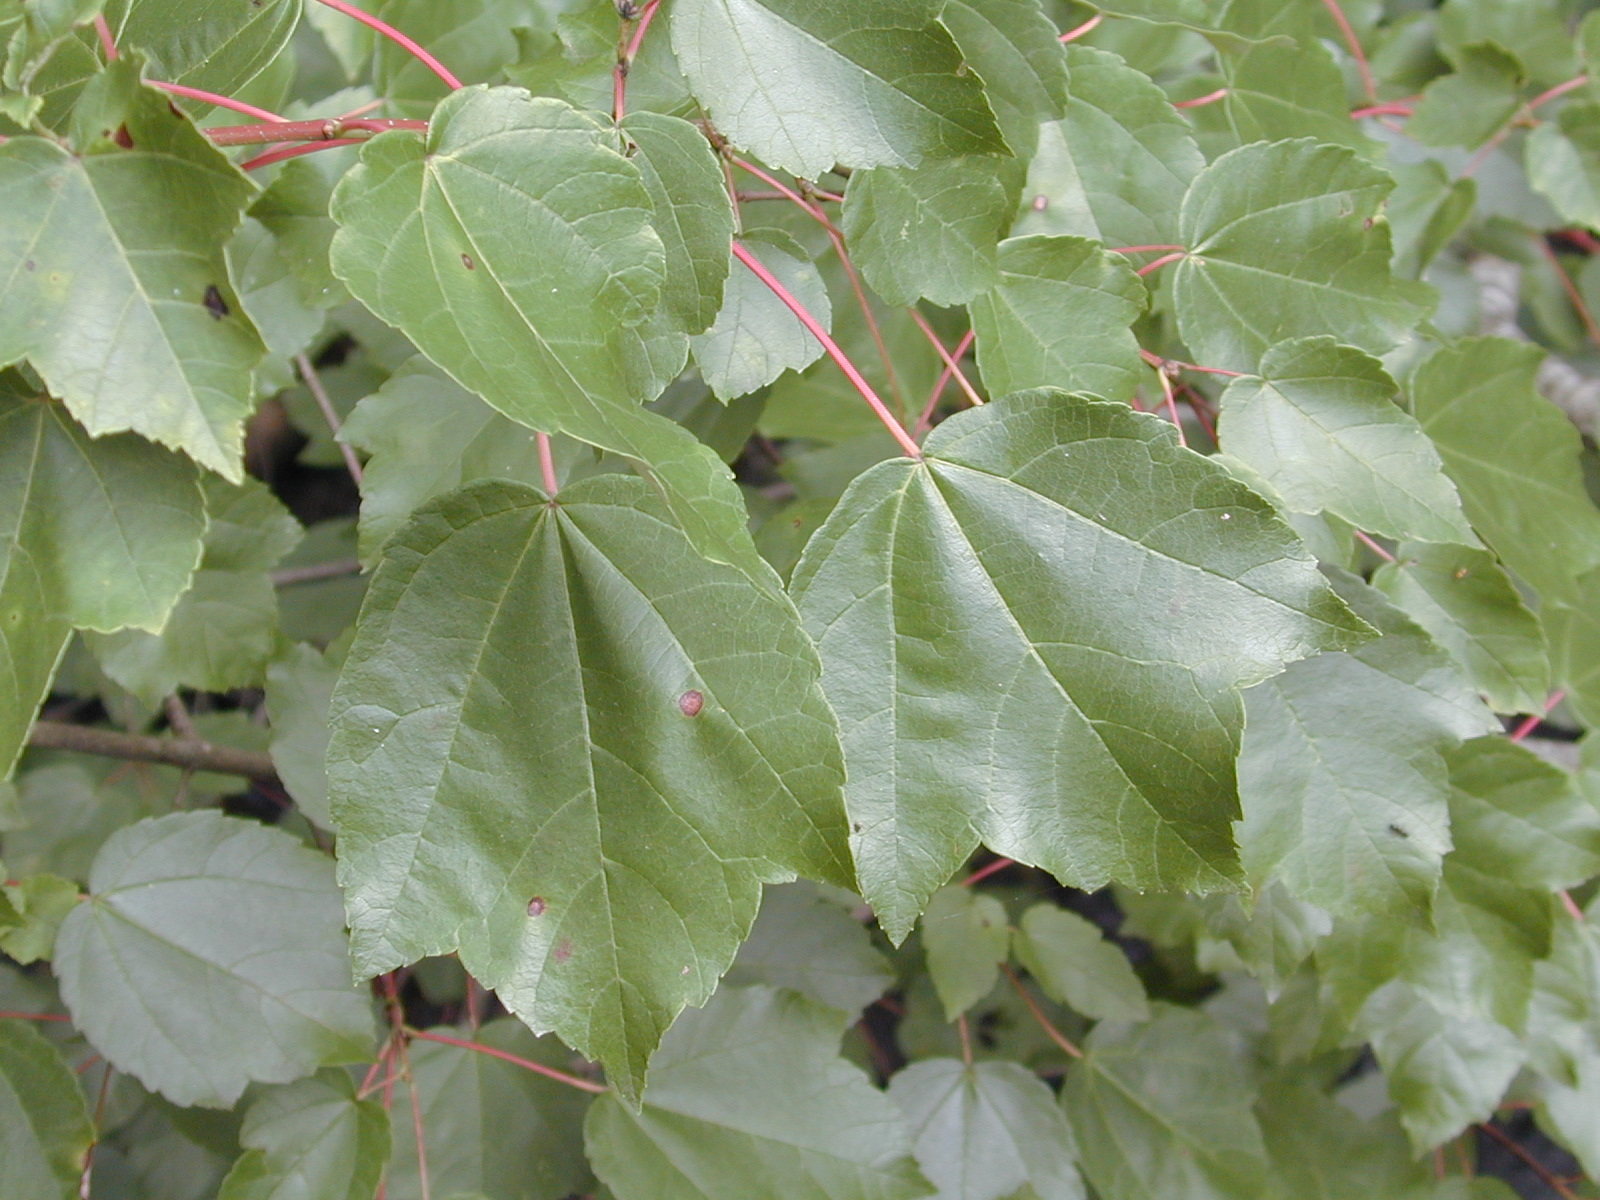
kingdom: Plantae
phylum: Tracheophyta
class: Magnoliopsida
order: Sapindales
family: Sapindaceae
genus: Acer
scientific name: Acer rubrum
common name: Red maple
